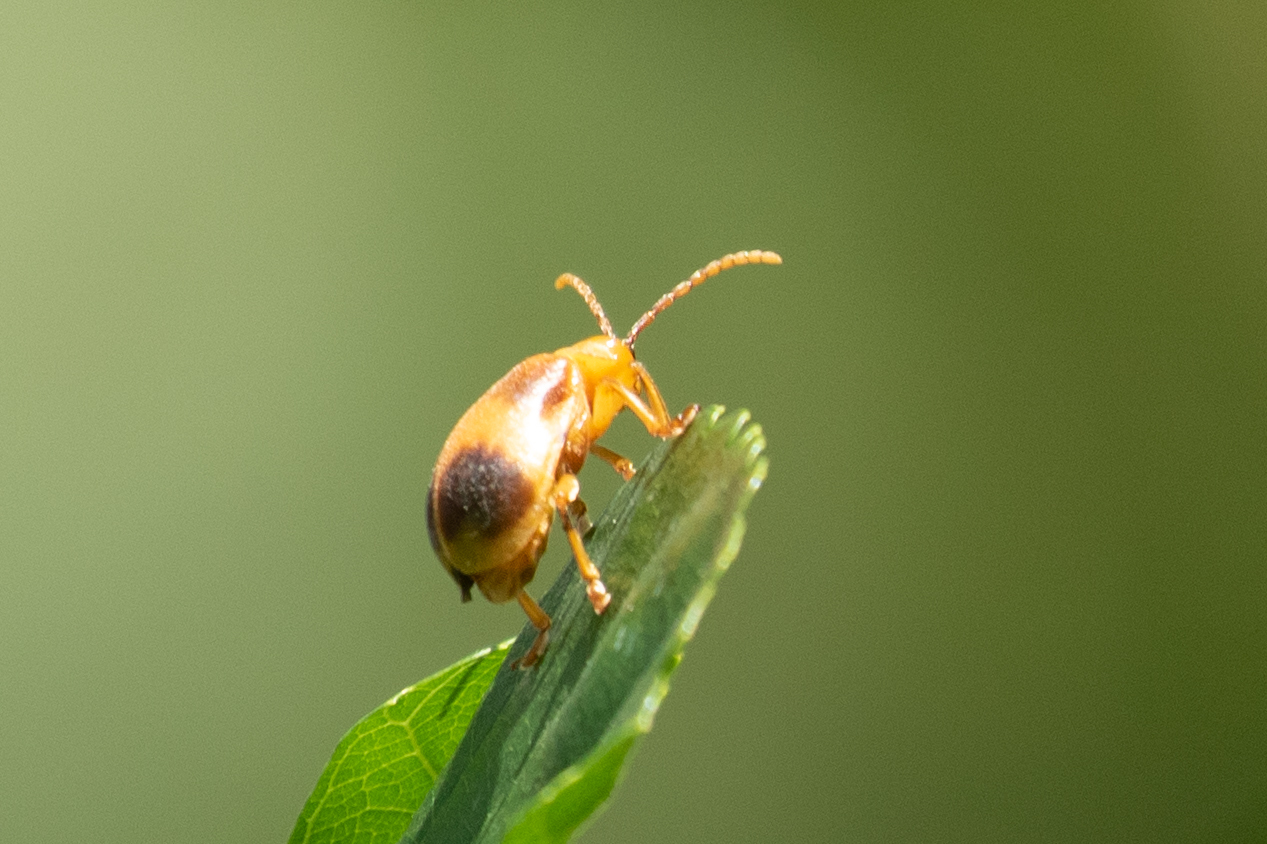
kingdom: Animalia
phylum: Arthropoda
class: Insecta
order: Coleoptera
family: Chrysomelidae
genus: Monocesta
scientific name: Monocesta coryli
